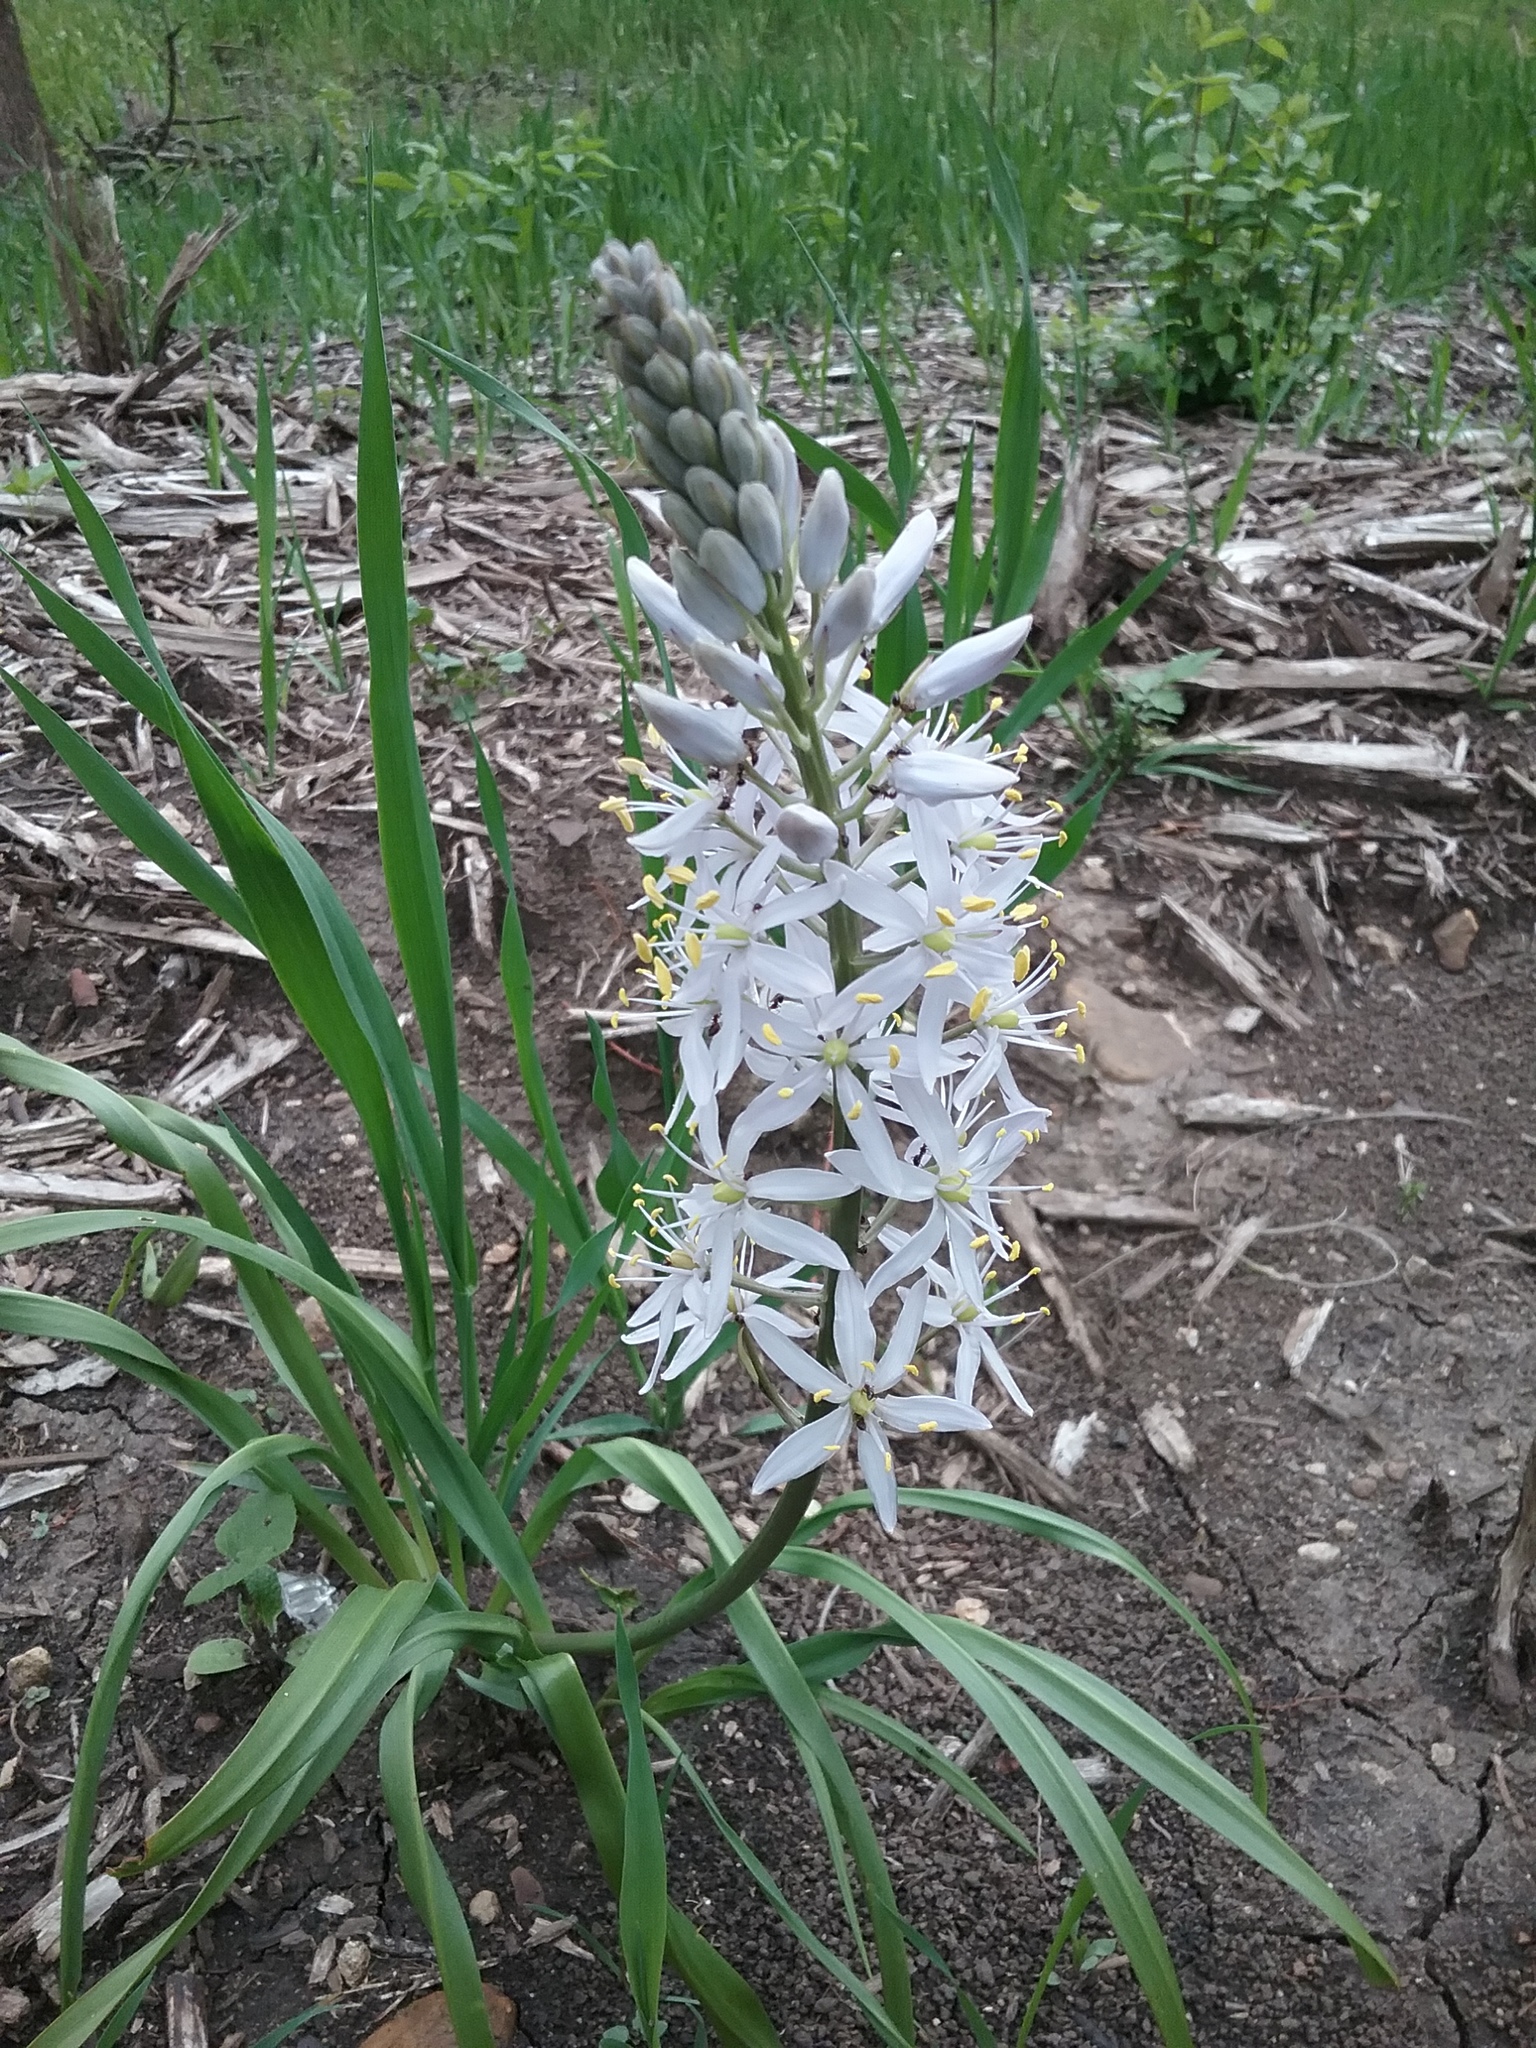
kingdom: Plantae
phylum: Tracheophyta
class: Liliopsida
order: Asparagales
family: Asparagaceae
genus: Camassia
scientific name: Camassia scilloides
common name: Wild hyacinth
